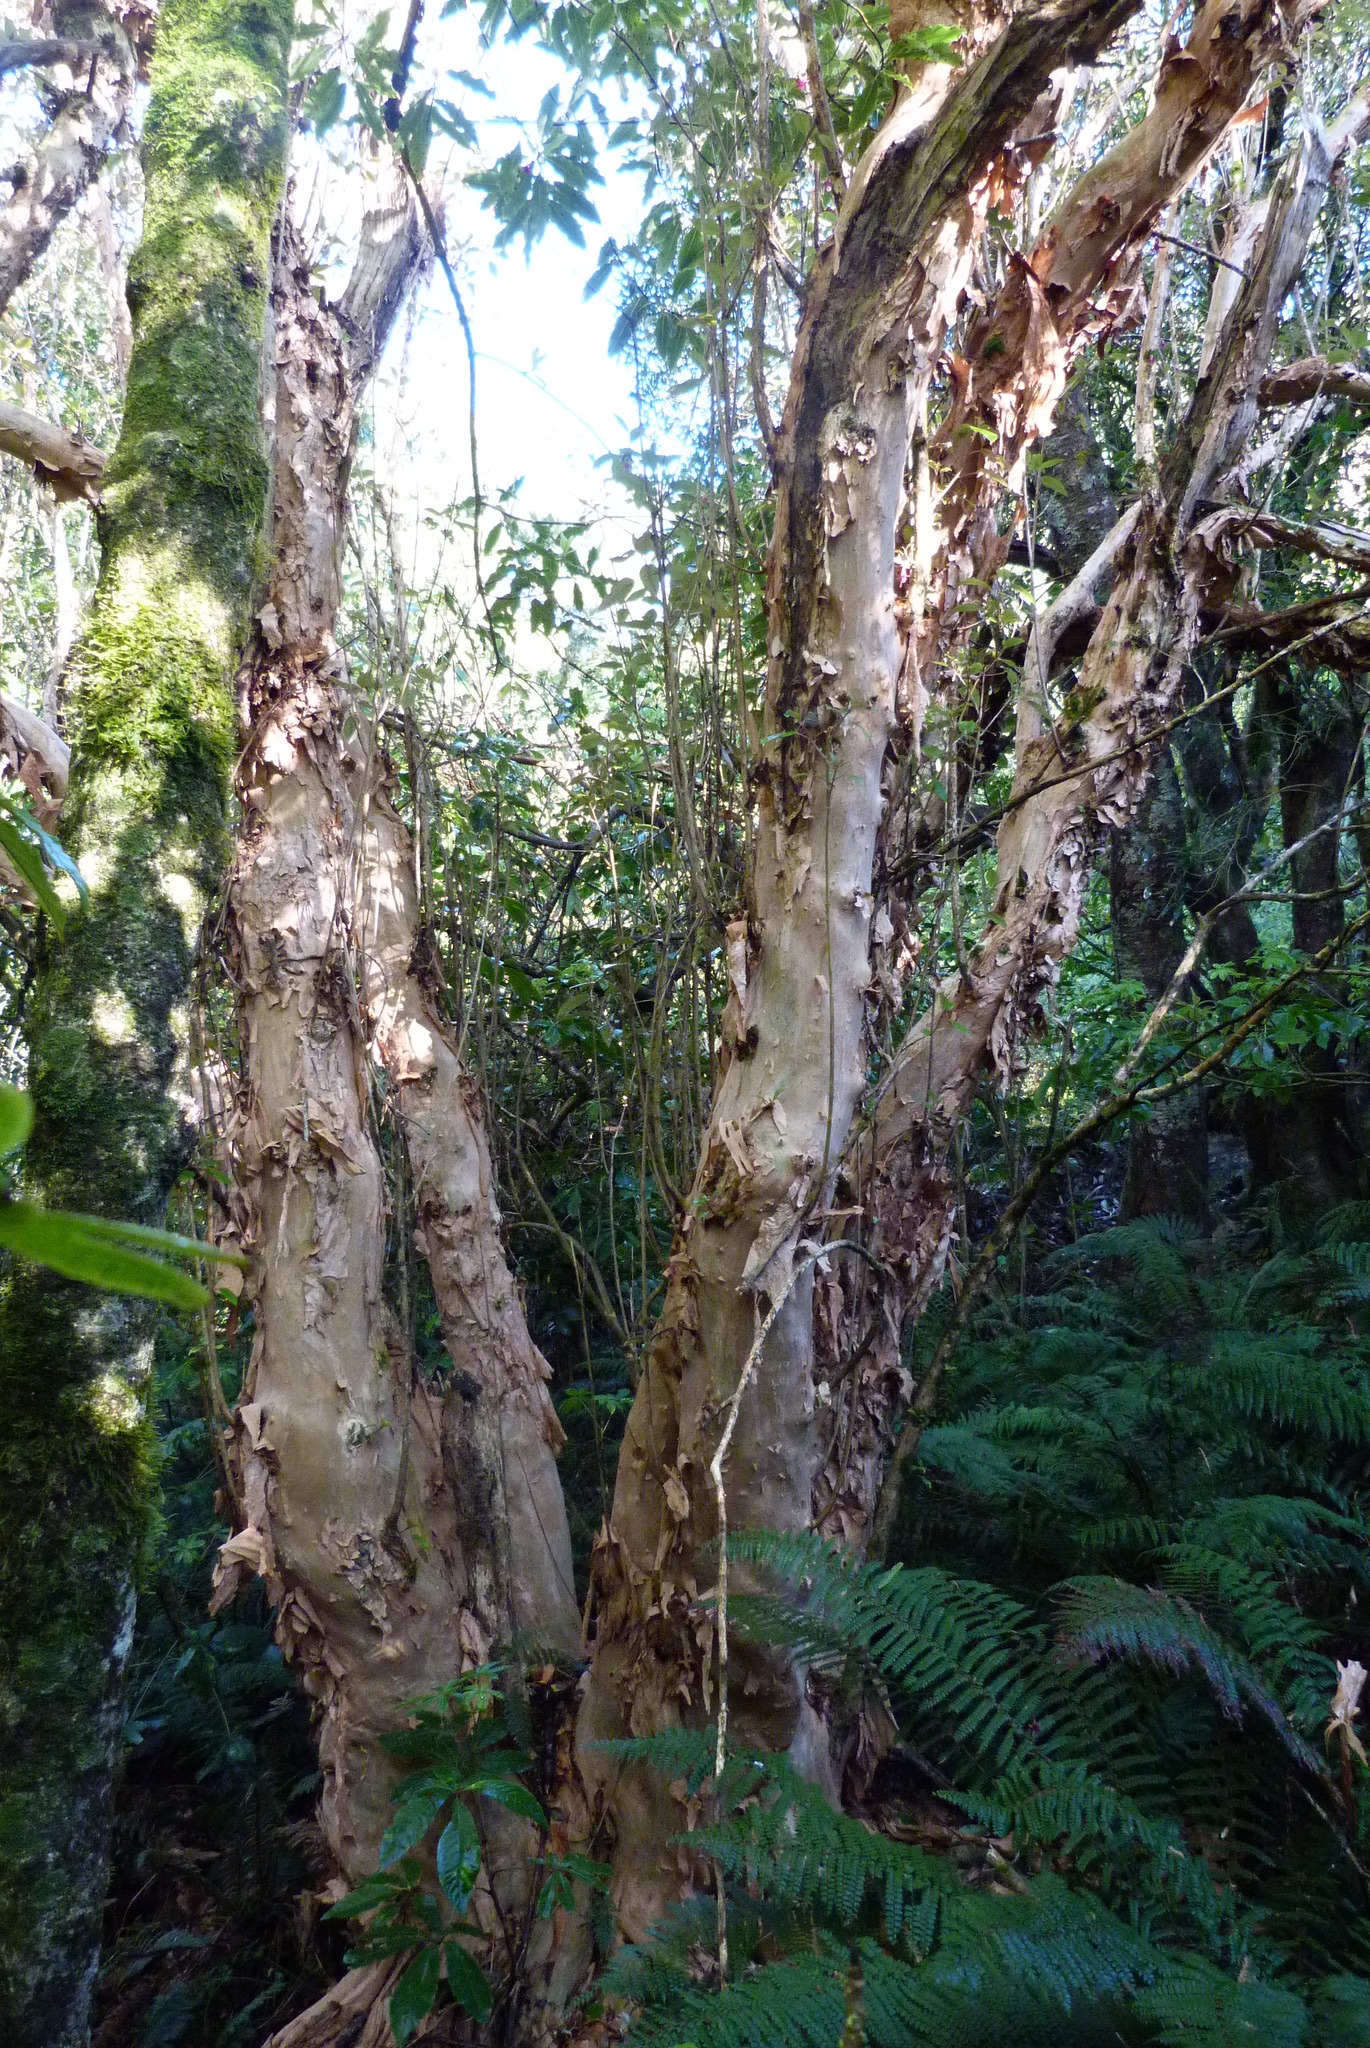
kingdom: Plantae
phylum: Tracheophyta
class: Magnoliopsida
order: Myrtales
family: Onagraceae
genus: Fuchsia
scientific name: Fuchsia excorticata
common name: Tree fuchsia
